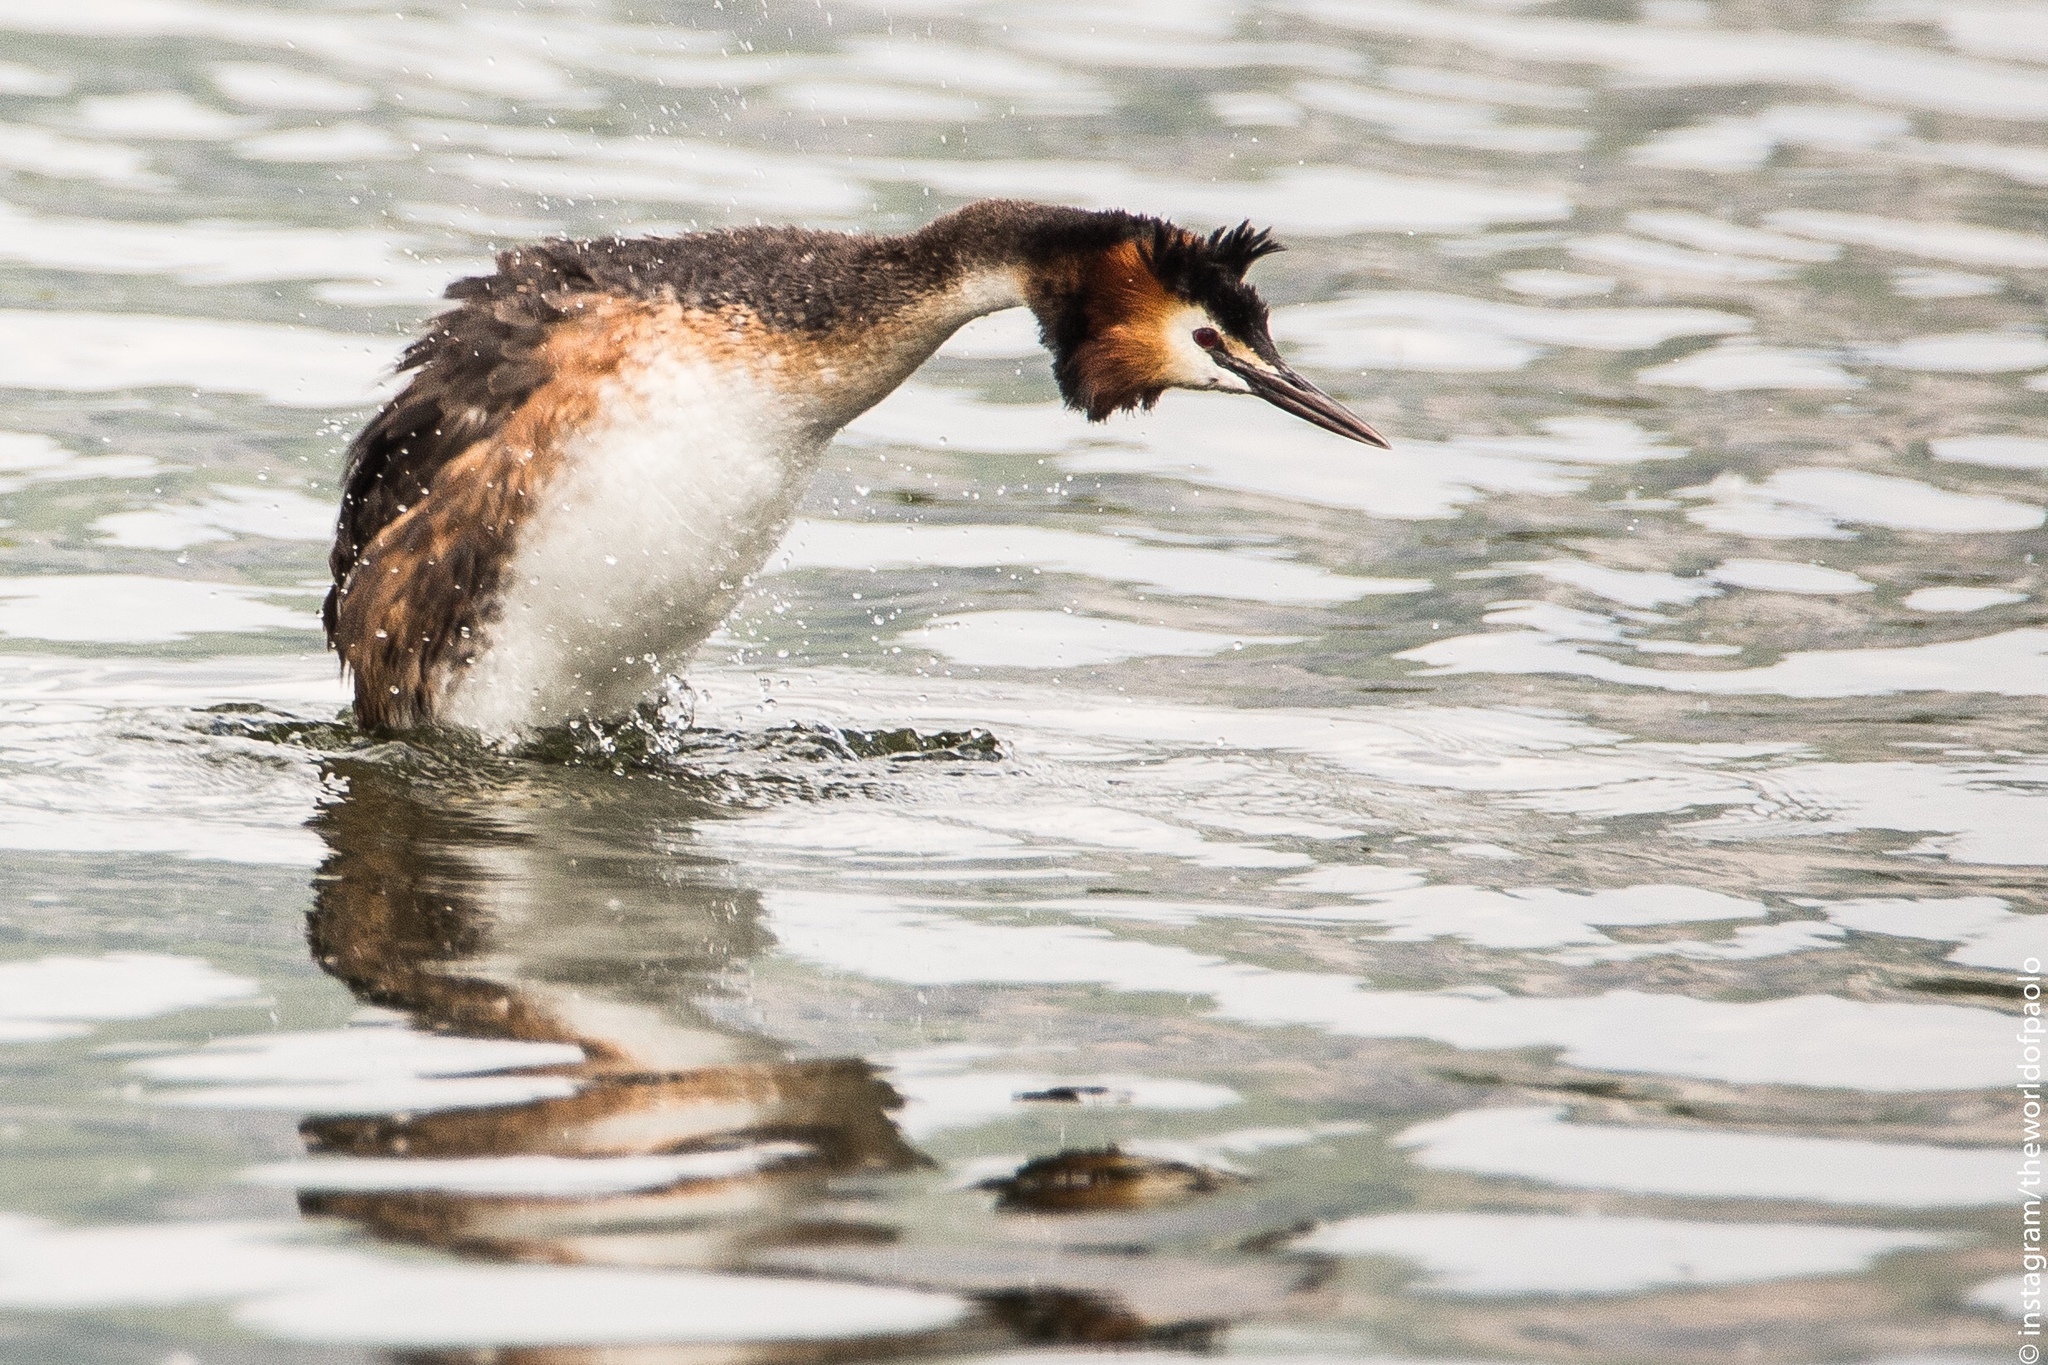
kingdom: Animalia
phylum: Chordata
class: Aves
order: Podicipediformes
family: Podicipedidae
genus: Podiceps
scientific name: Podiceps cristatus
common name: Great crested grebe
